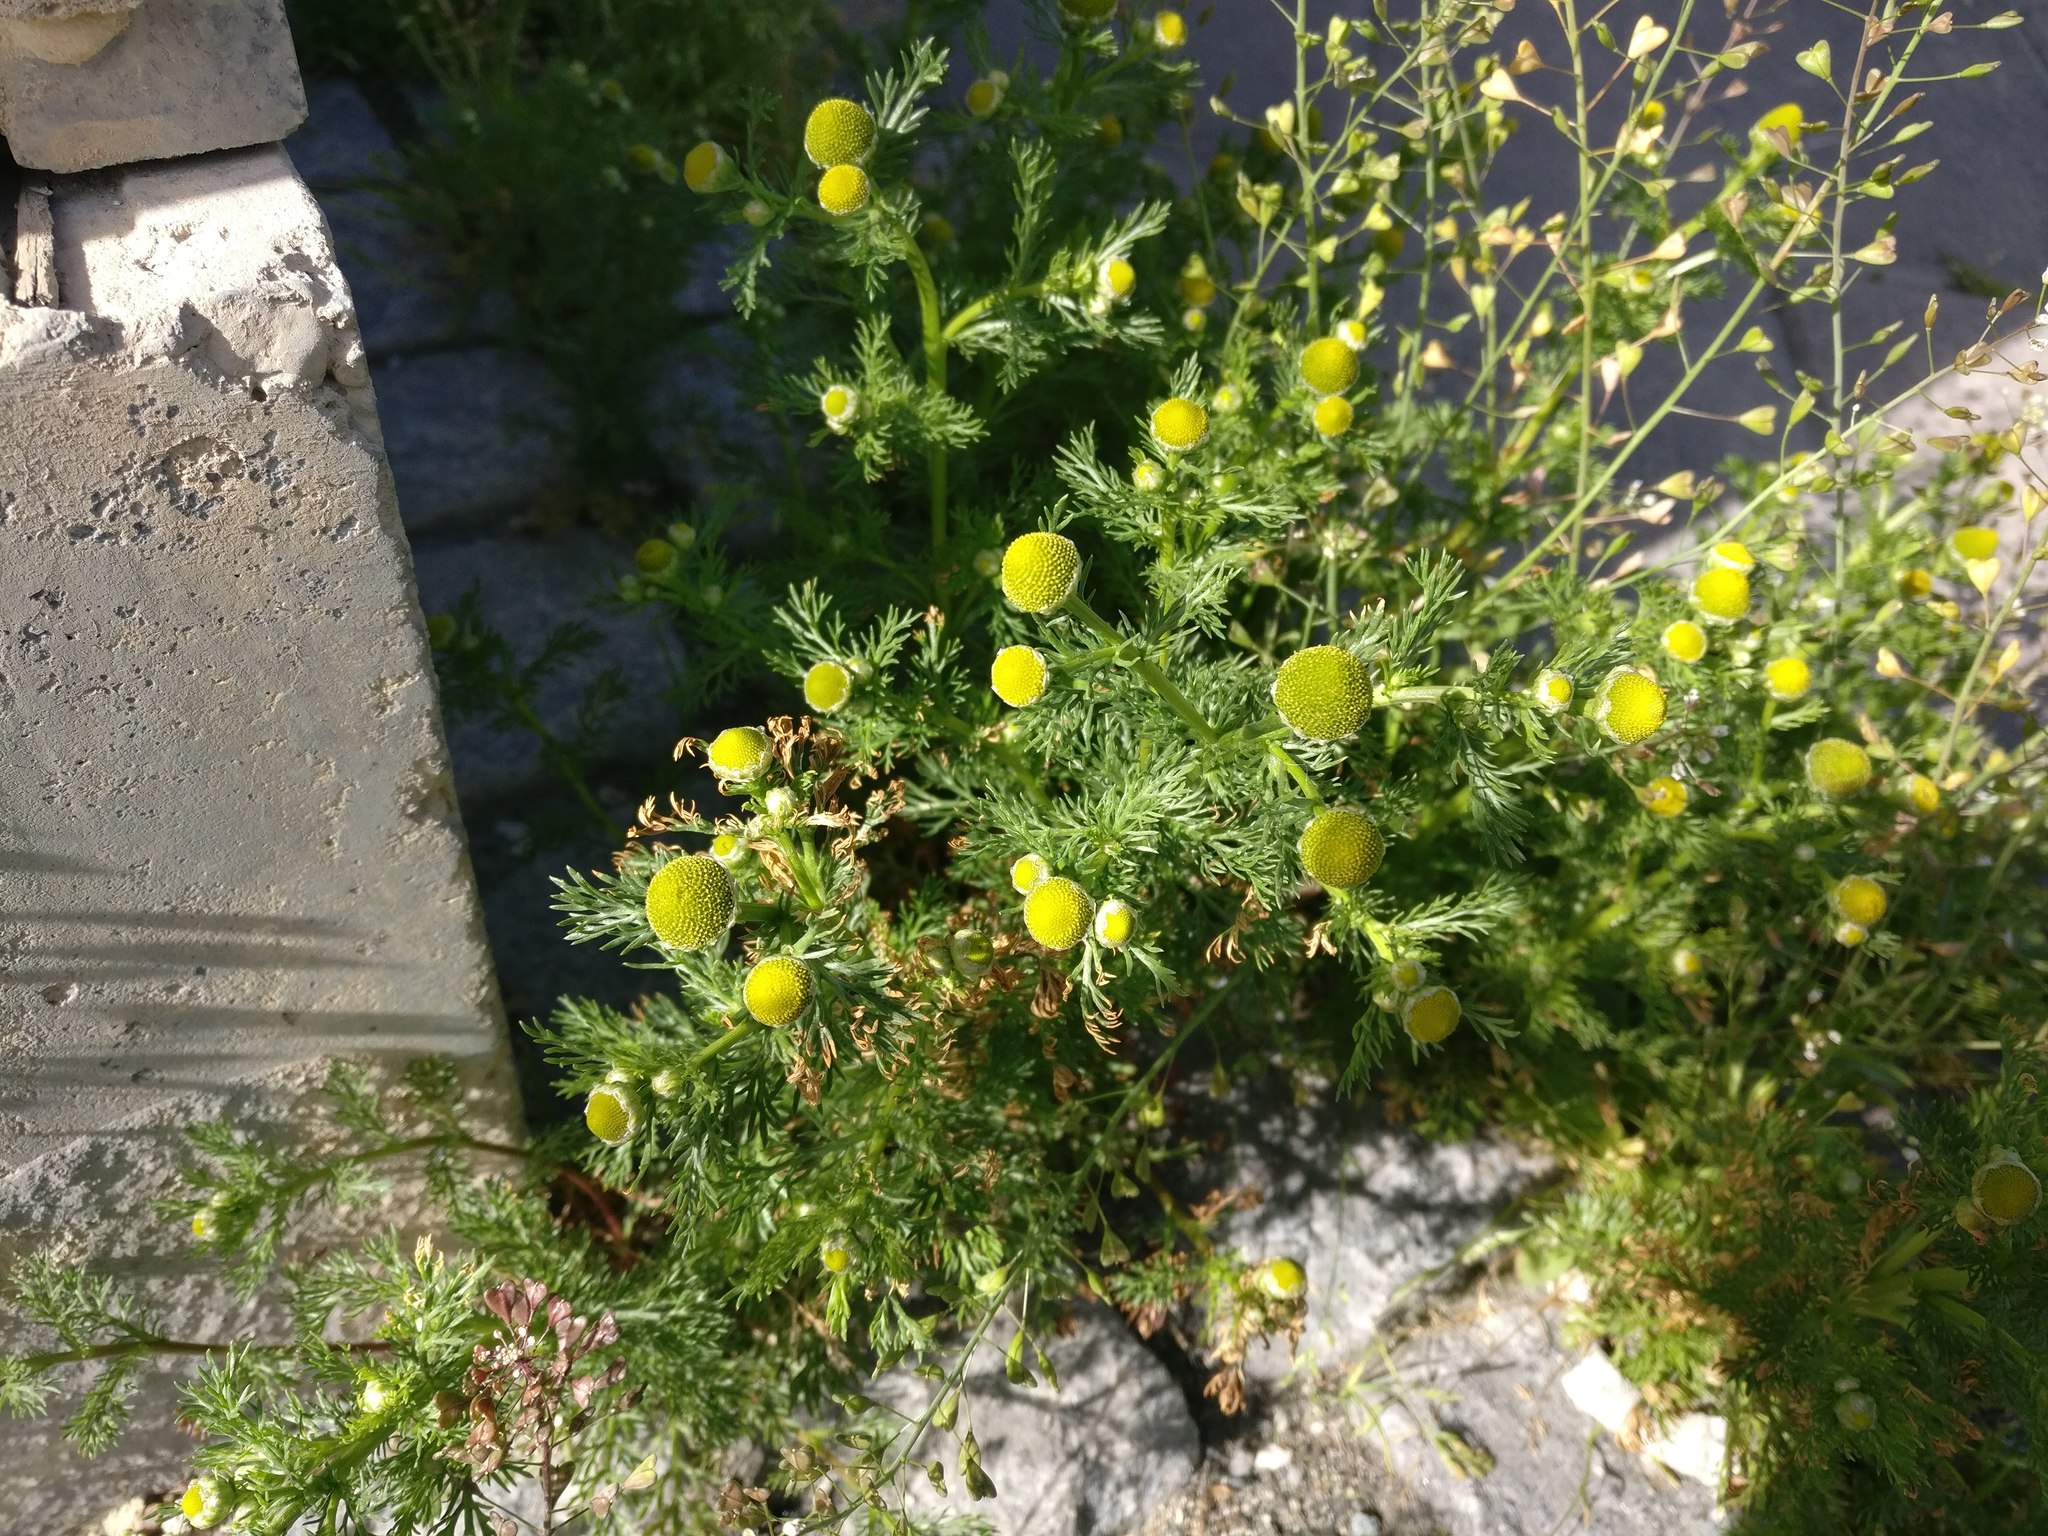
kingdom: Plantae
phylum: Tracheophyta
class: Magnoliopsida
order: Asterales
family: Asteraceae
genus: Matricaria
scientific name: Matricaria discoidea
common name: Disc mayweed
